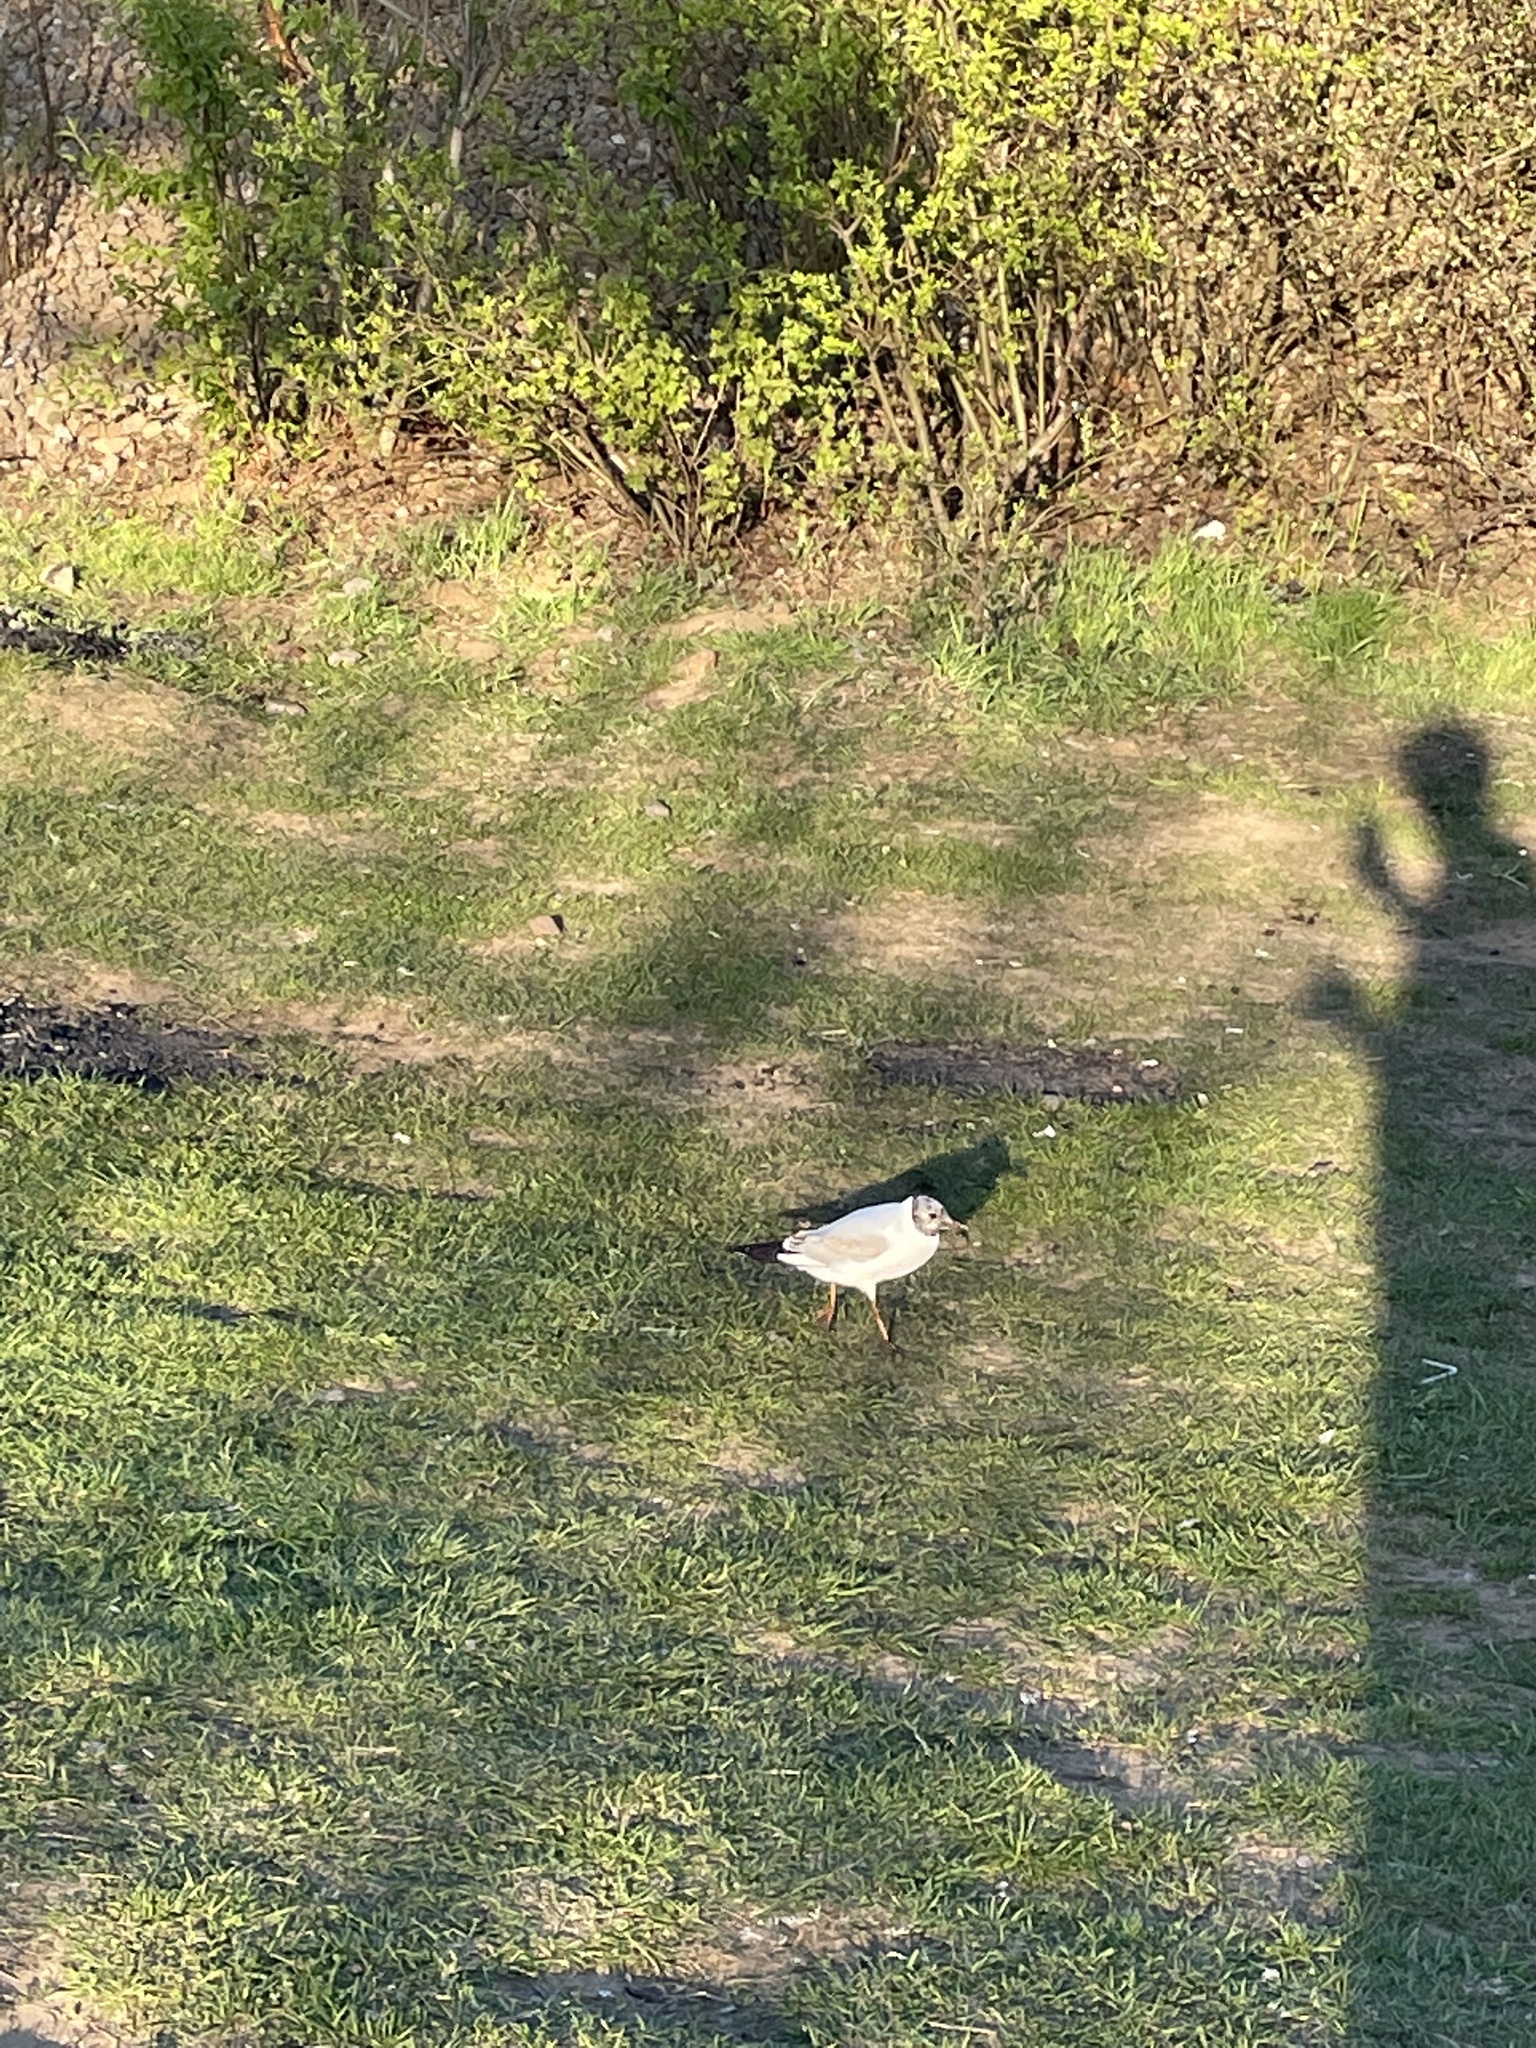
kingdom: Animalia
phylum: Chordata
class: Aves
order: Charadriiformes
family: Laridae
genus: Chroicocephalus
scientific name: Chroicocephalus ridibundus
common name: Black-headed gull
